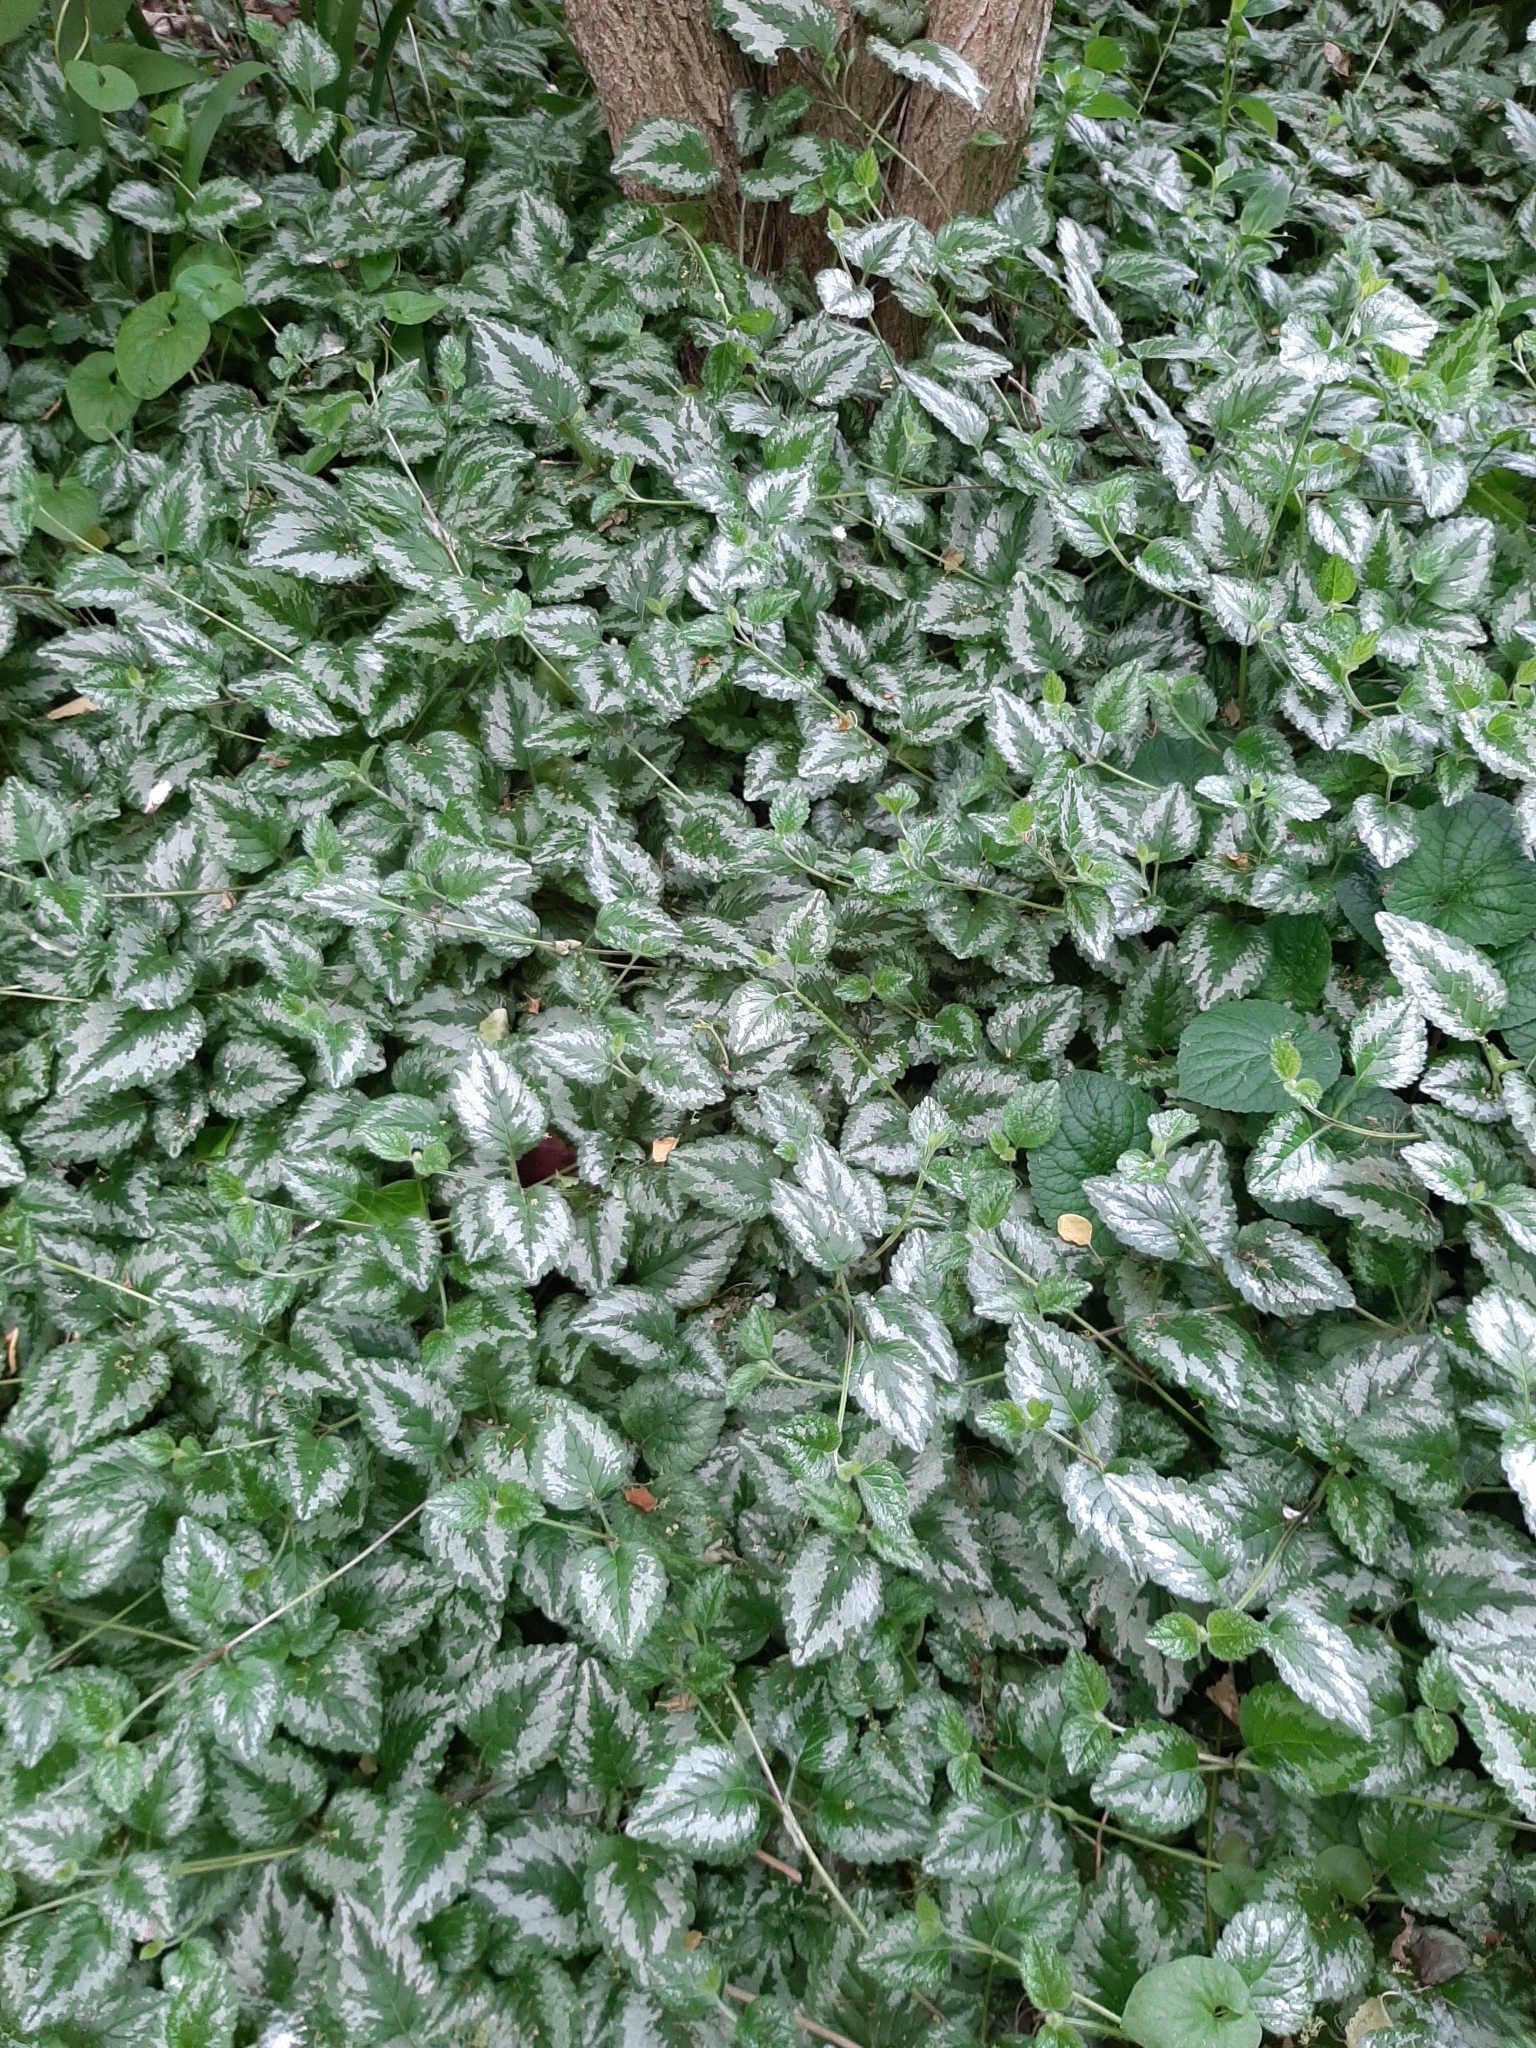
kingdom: Plantae
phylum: Tracheophyta
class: Magnoliopsida
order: Lamiales
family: Lamiaceae
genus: Lamium
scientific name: Lamium galeobdolon
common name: Yellow archangel
